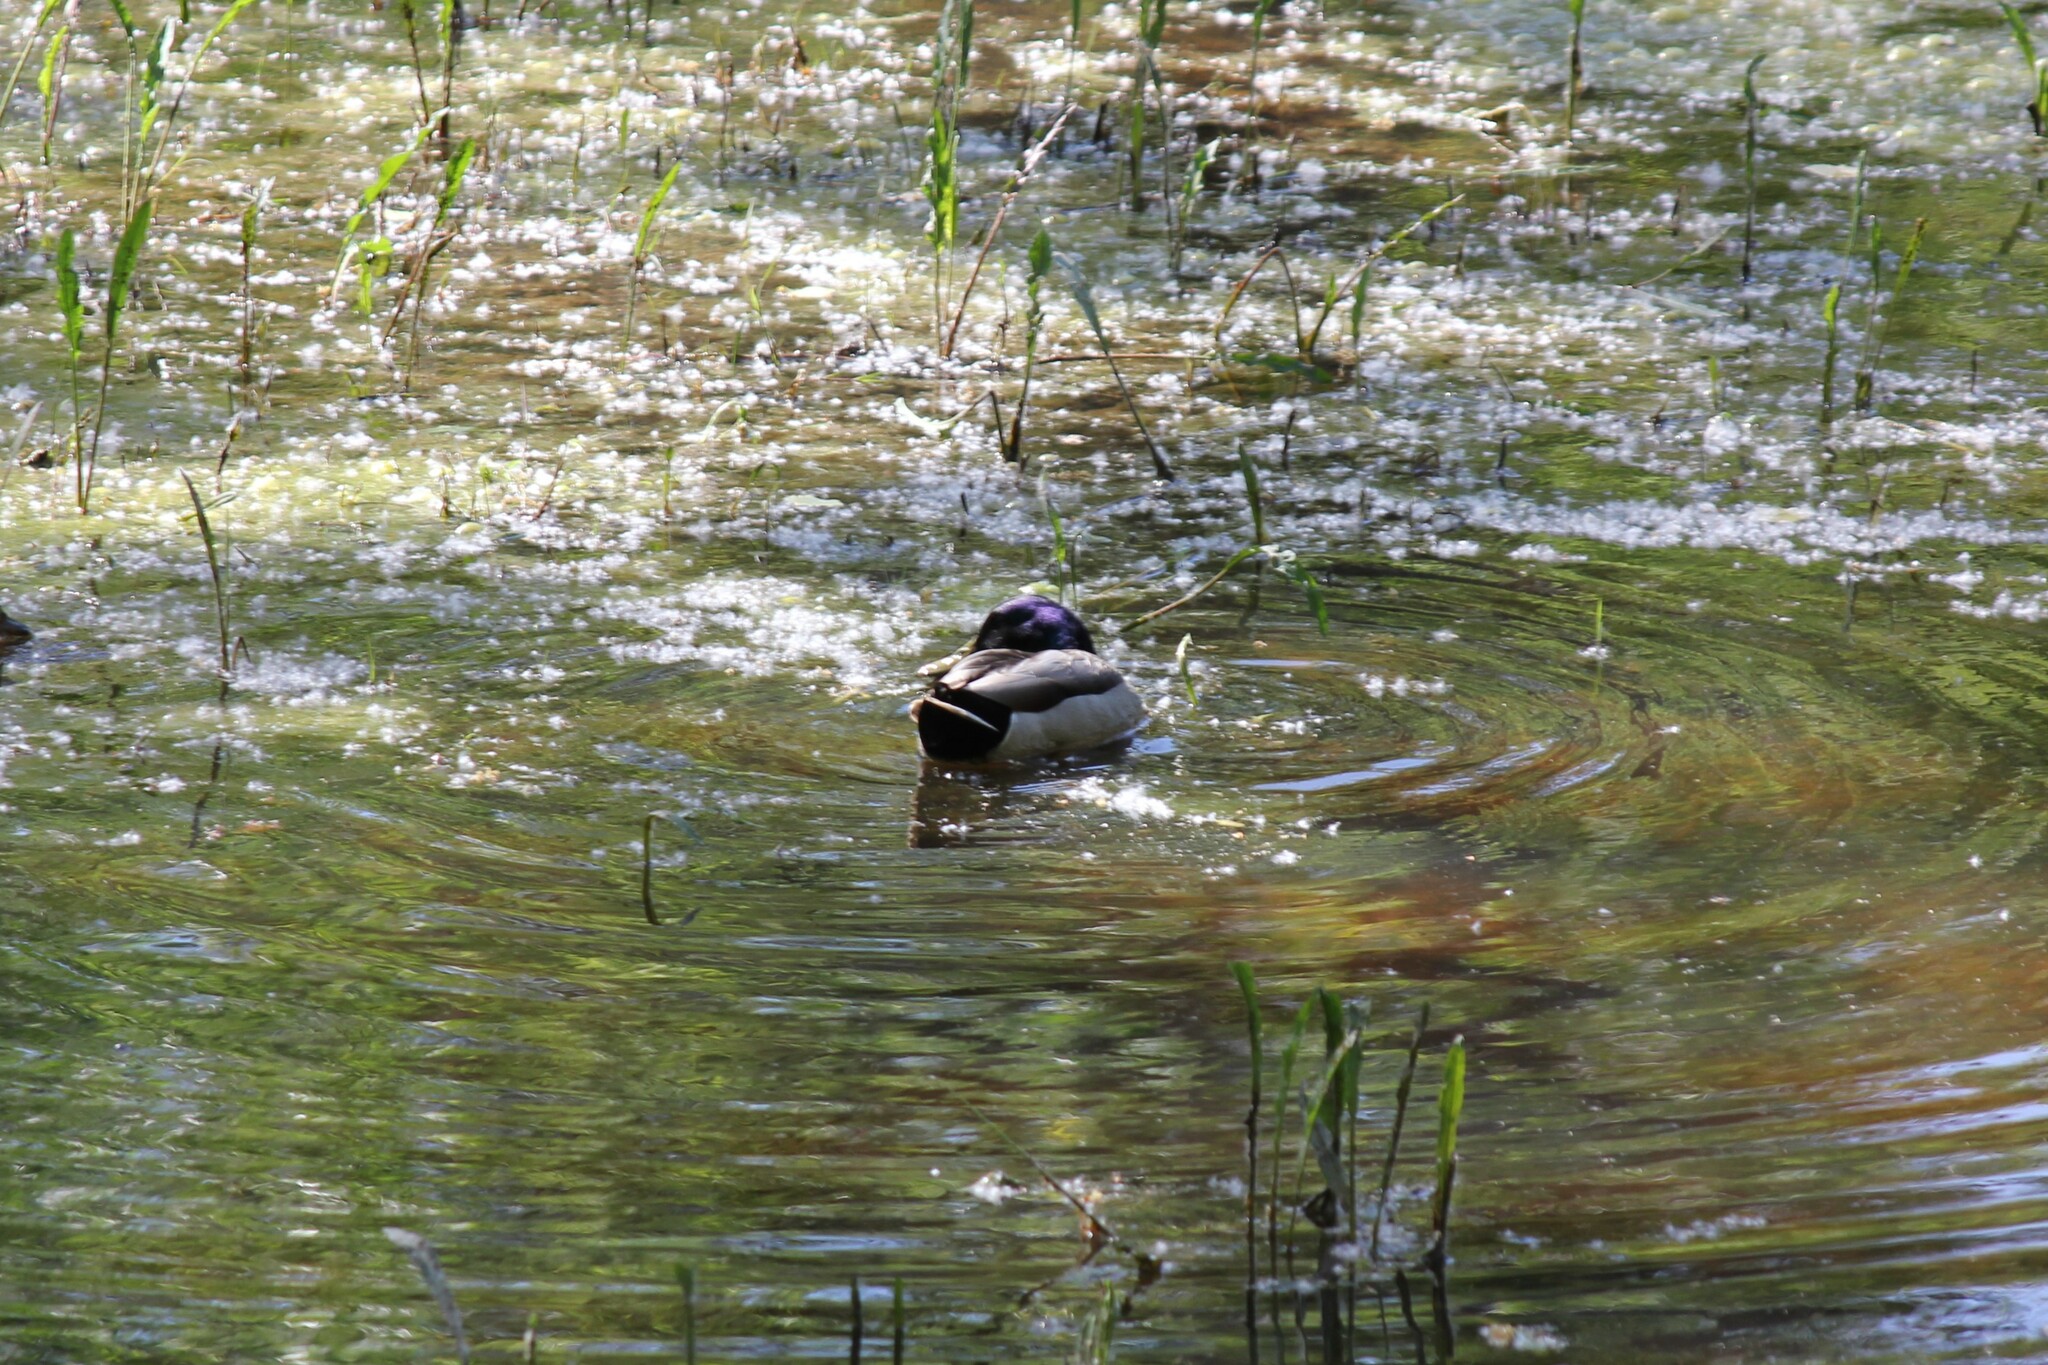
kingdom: Animalia
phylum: Chordata
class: Aves
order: Anseriformes
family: Anatidae
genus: Anas
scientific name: Anas platyrhynchos
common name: Mallard
